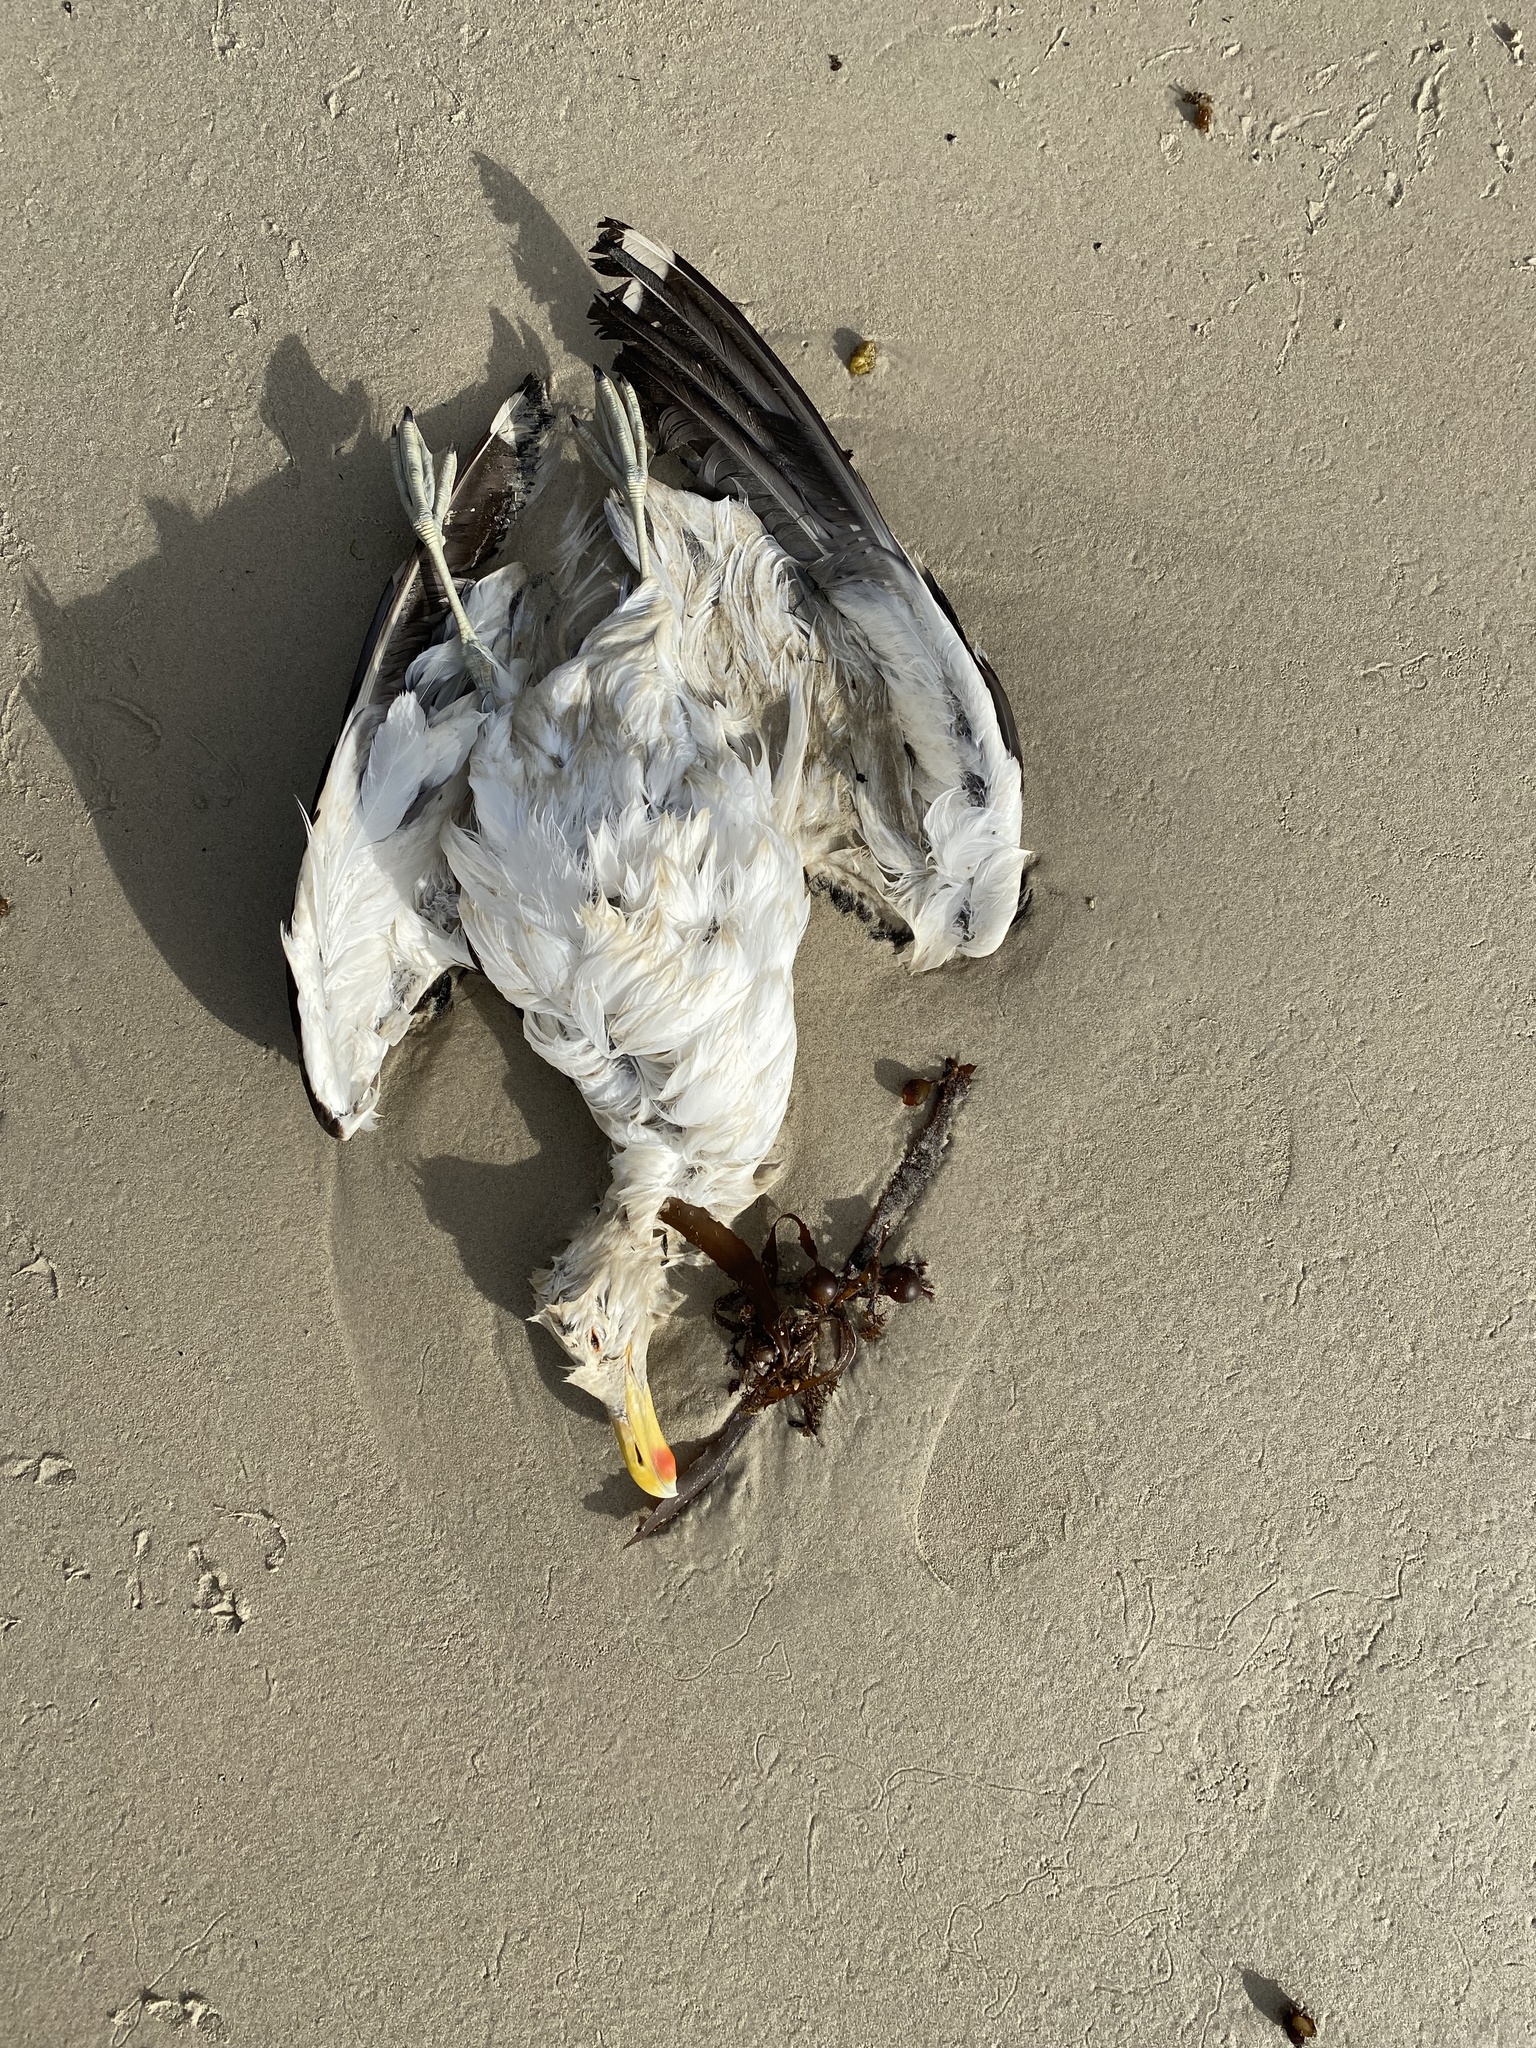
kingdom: Animalia
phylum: Chordata
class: Aves
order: Charadriiformes
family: Laridae
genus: Larus
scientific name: Larus dominicanus
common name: Kelp gull
